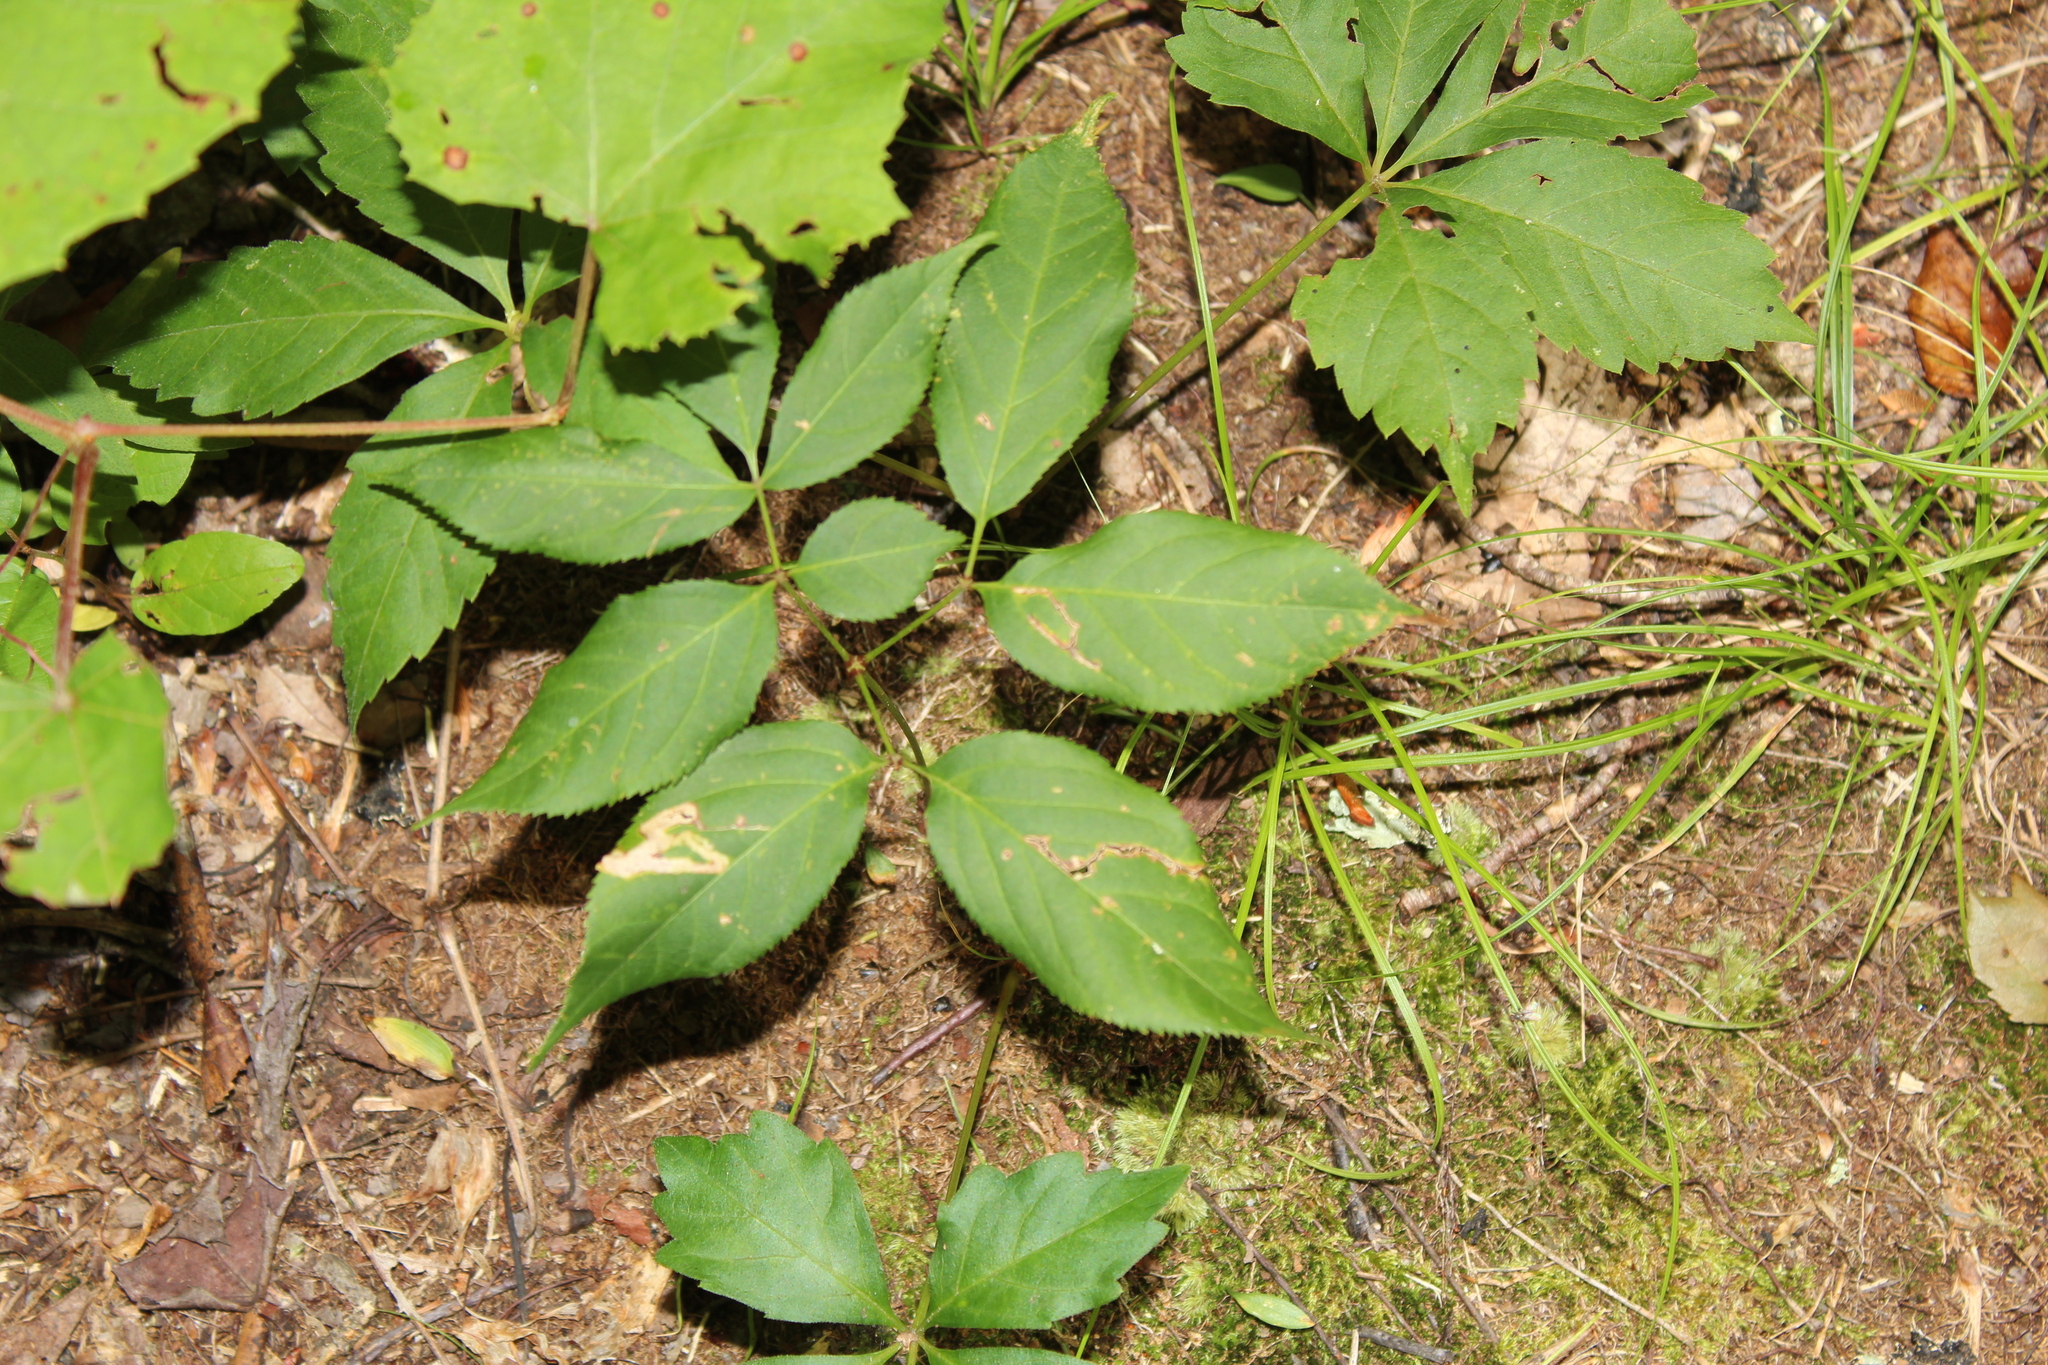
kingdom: Plantae
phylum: Tracheophyta
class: Magnoliopsida
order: Apiales
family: Araliaceae
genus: Aralia
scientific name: Aralia nudicaulis
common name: Wild sarsaparilla
